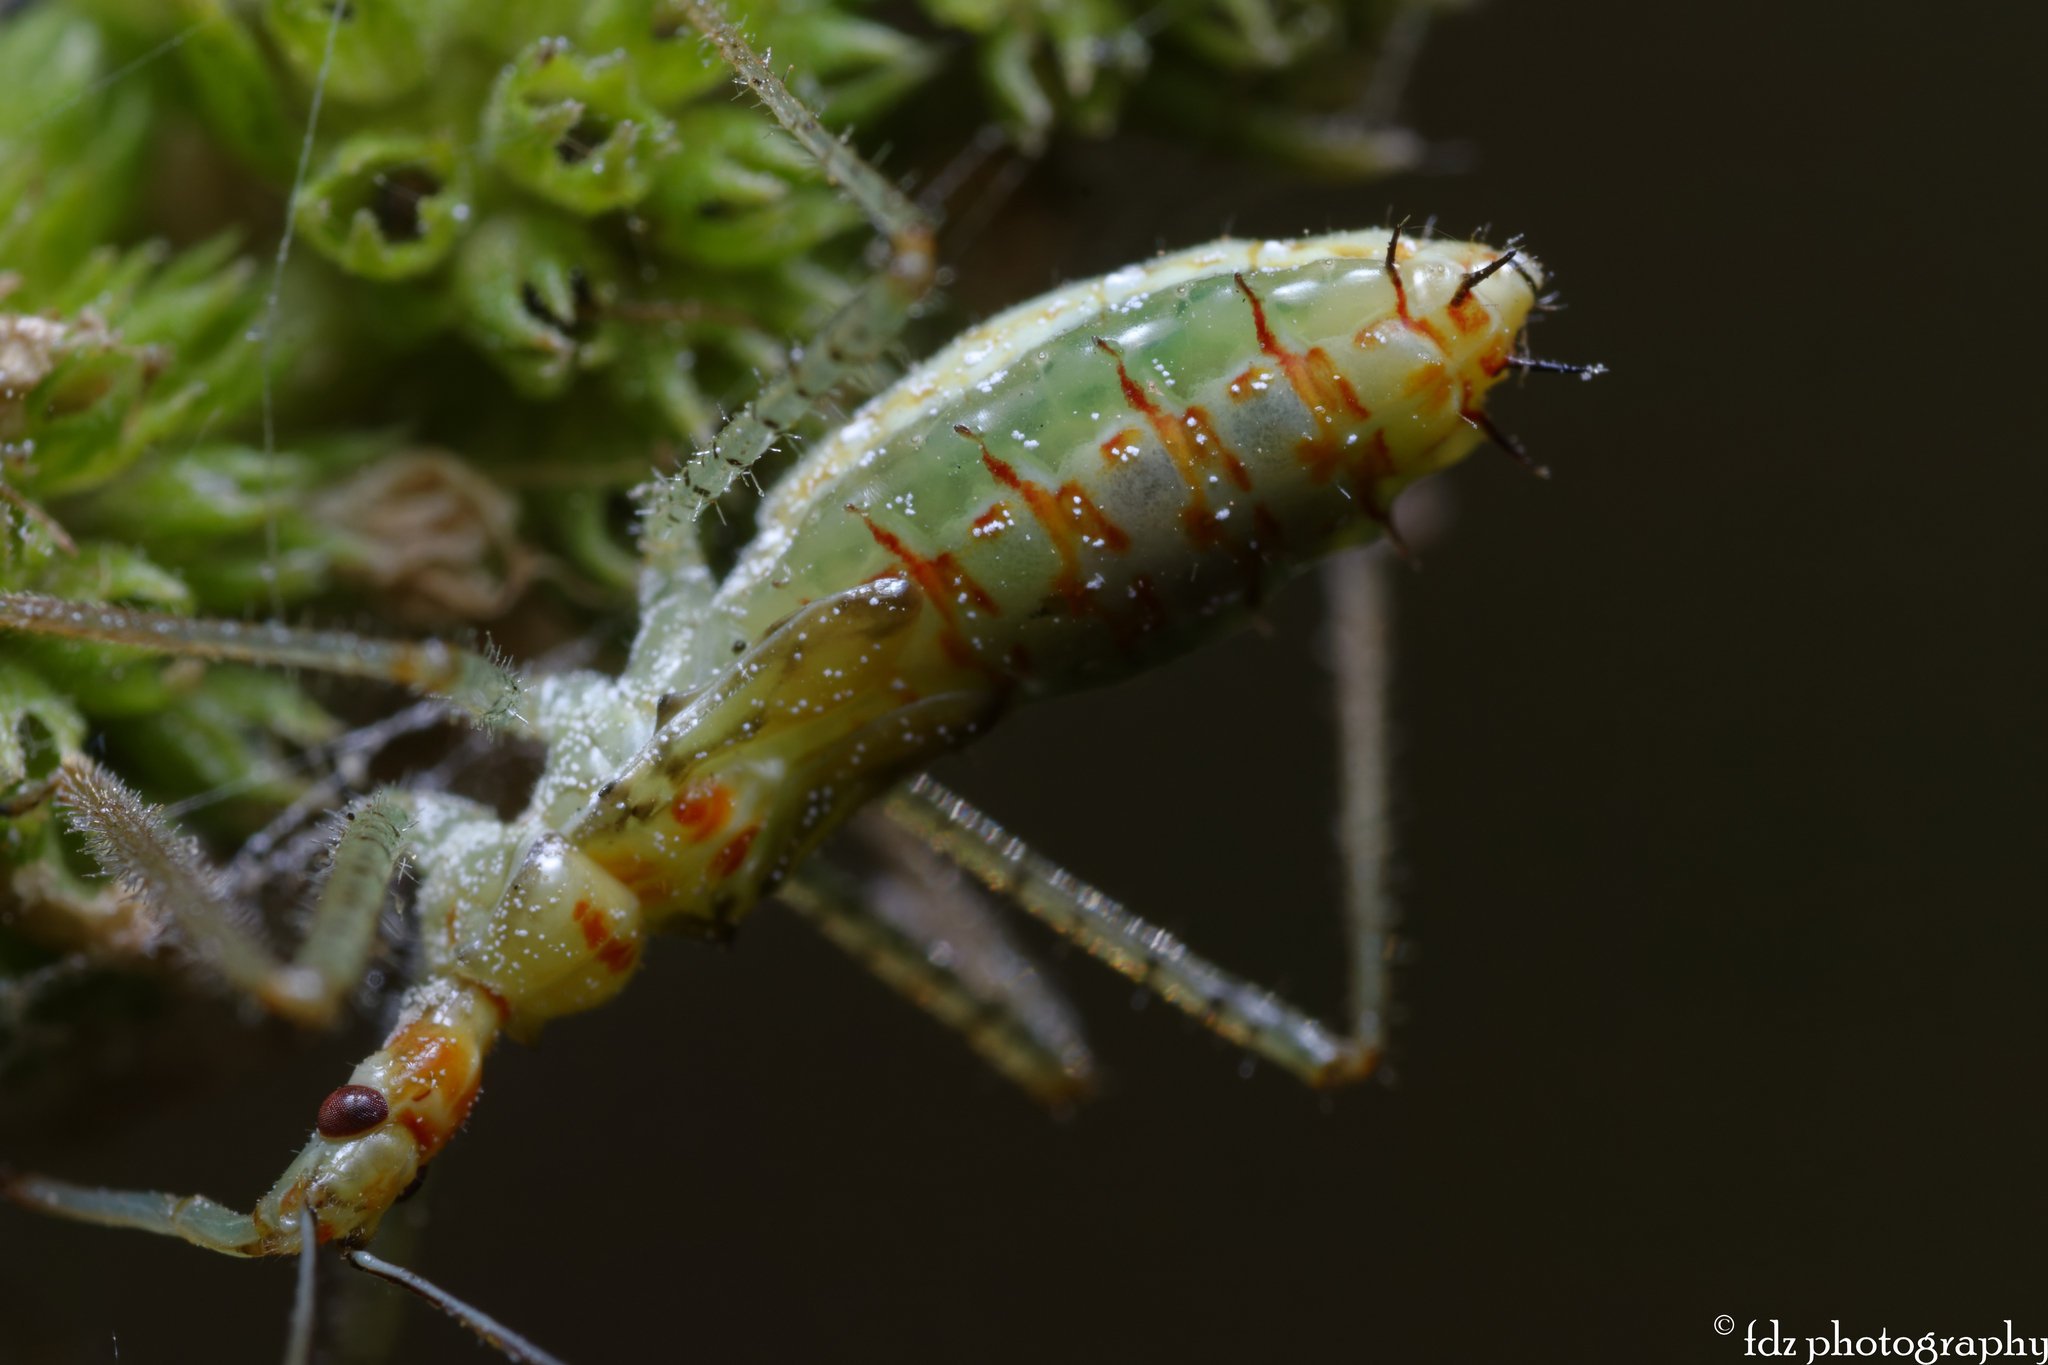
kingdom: Animalia
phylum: Arthropoda
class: Insecta
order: Hemiptera
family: Reduviidae
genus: Zelus
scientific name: Zelus renardii
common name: Assassin bug
